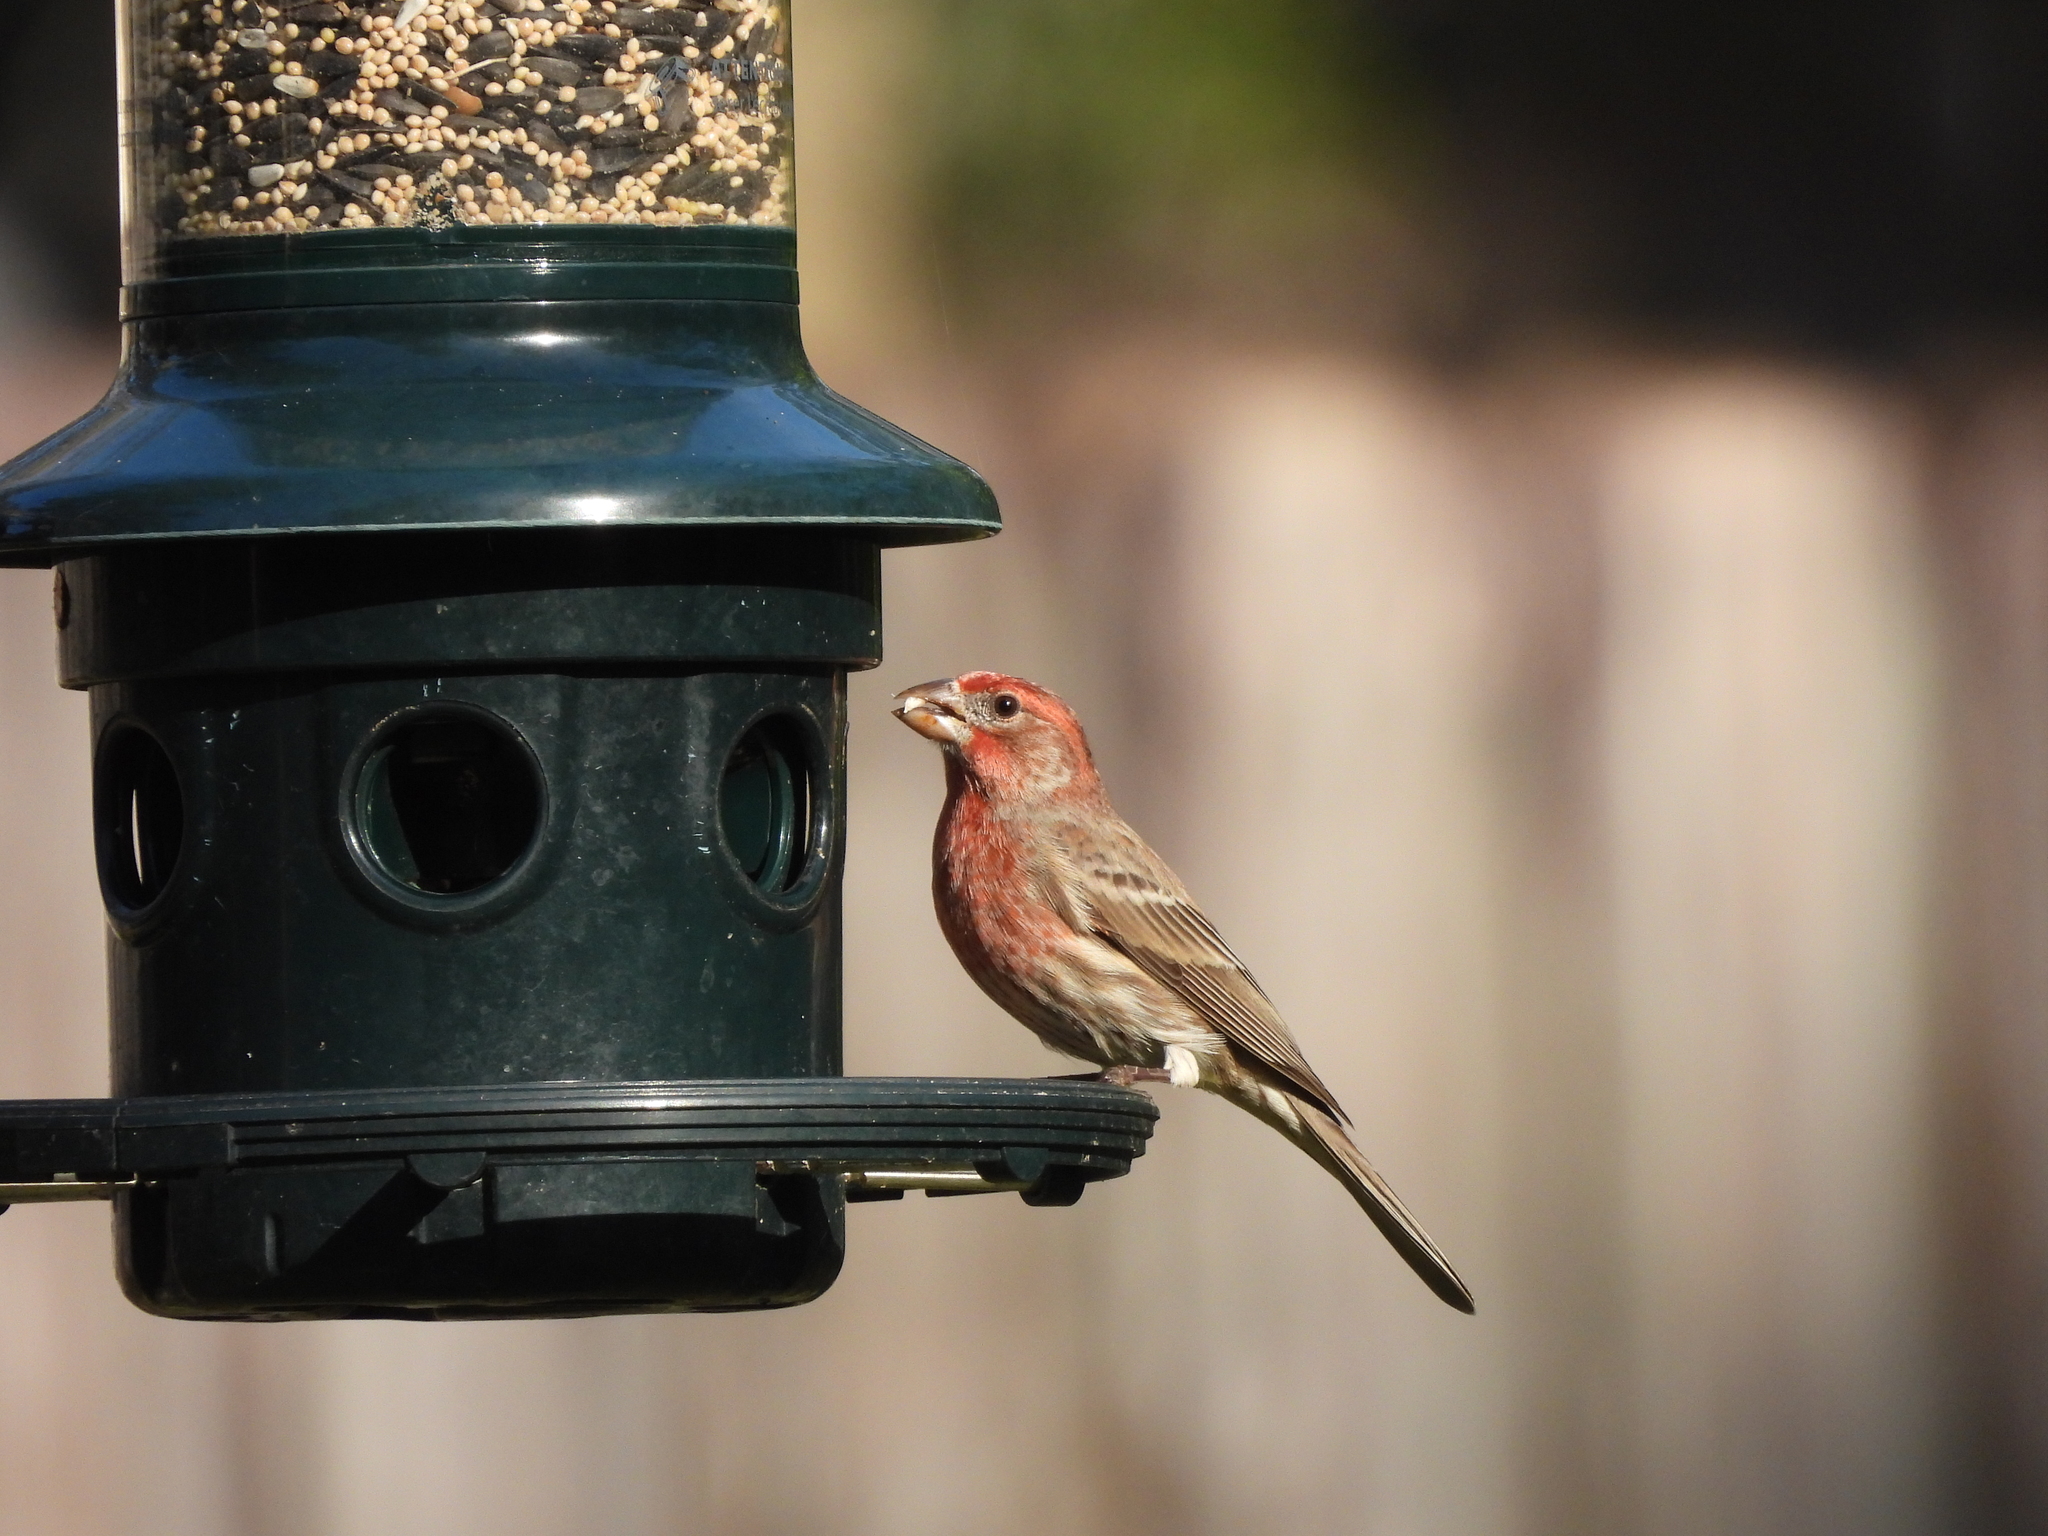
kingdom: Animalia
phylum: Chordata
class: Aves
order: Passeriformes
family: Fringillidae
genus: Haemorhous
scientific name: Haemorhous mexicanus
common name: House finch
